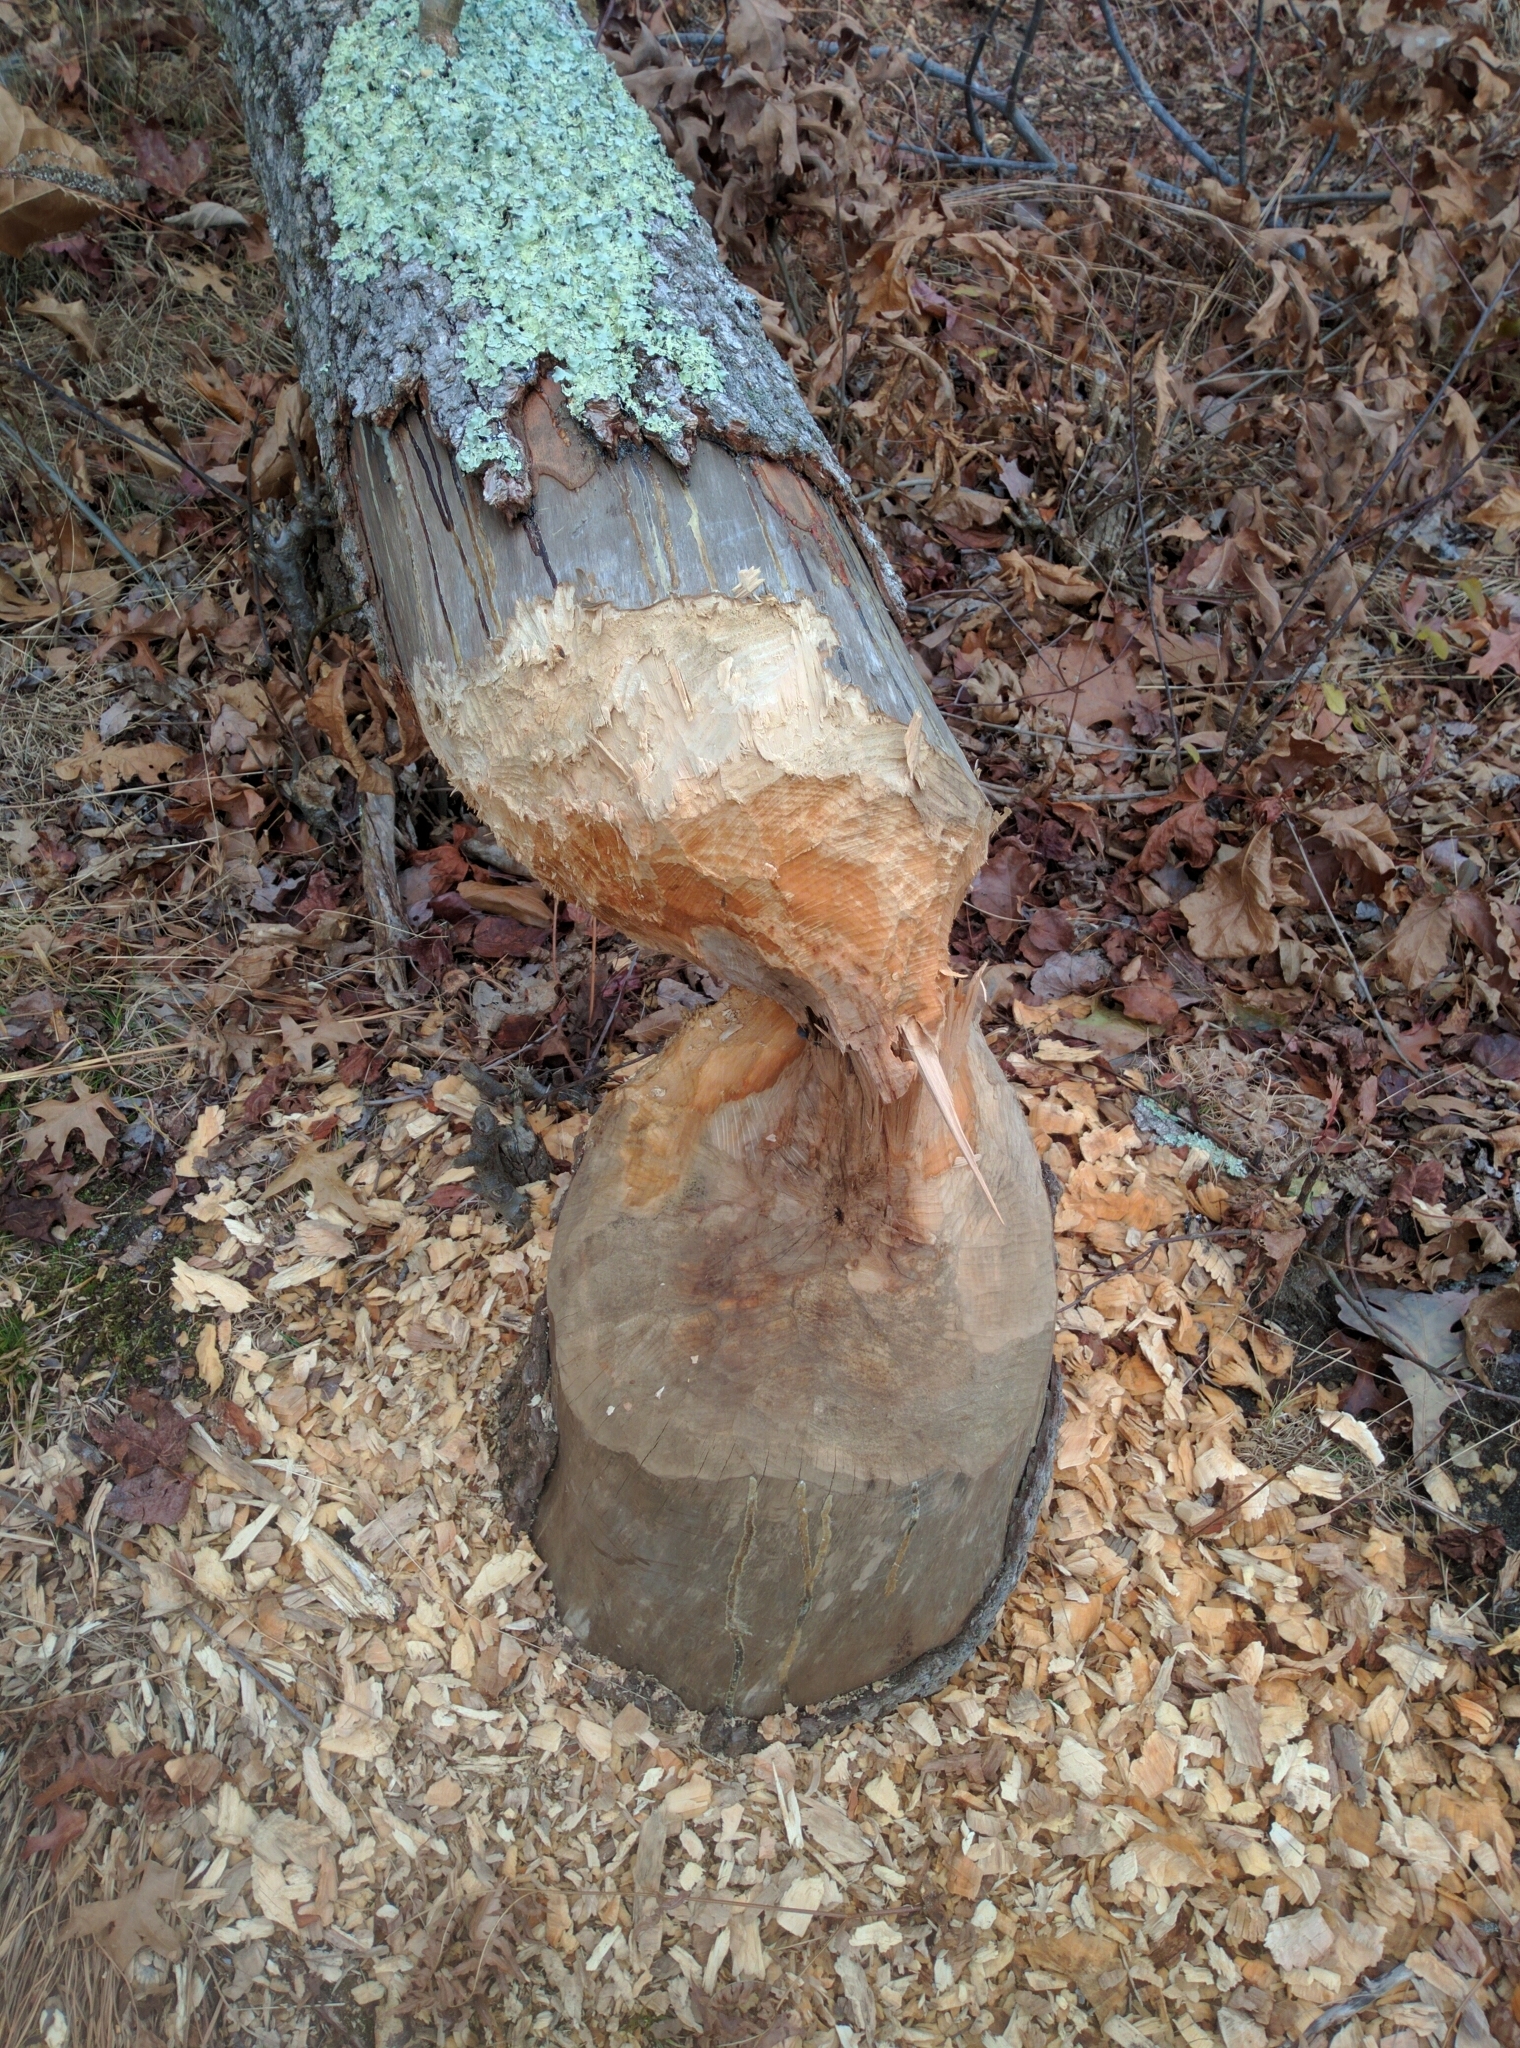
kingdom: Animalia
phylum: Chordata
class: Mammalia
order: Rodentia
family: Castoridae
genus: Castor
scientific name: Castor canadensis
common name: American beaver
